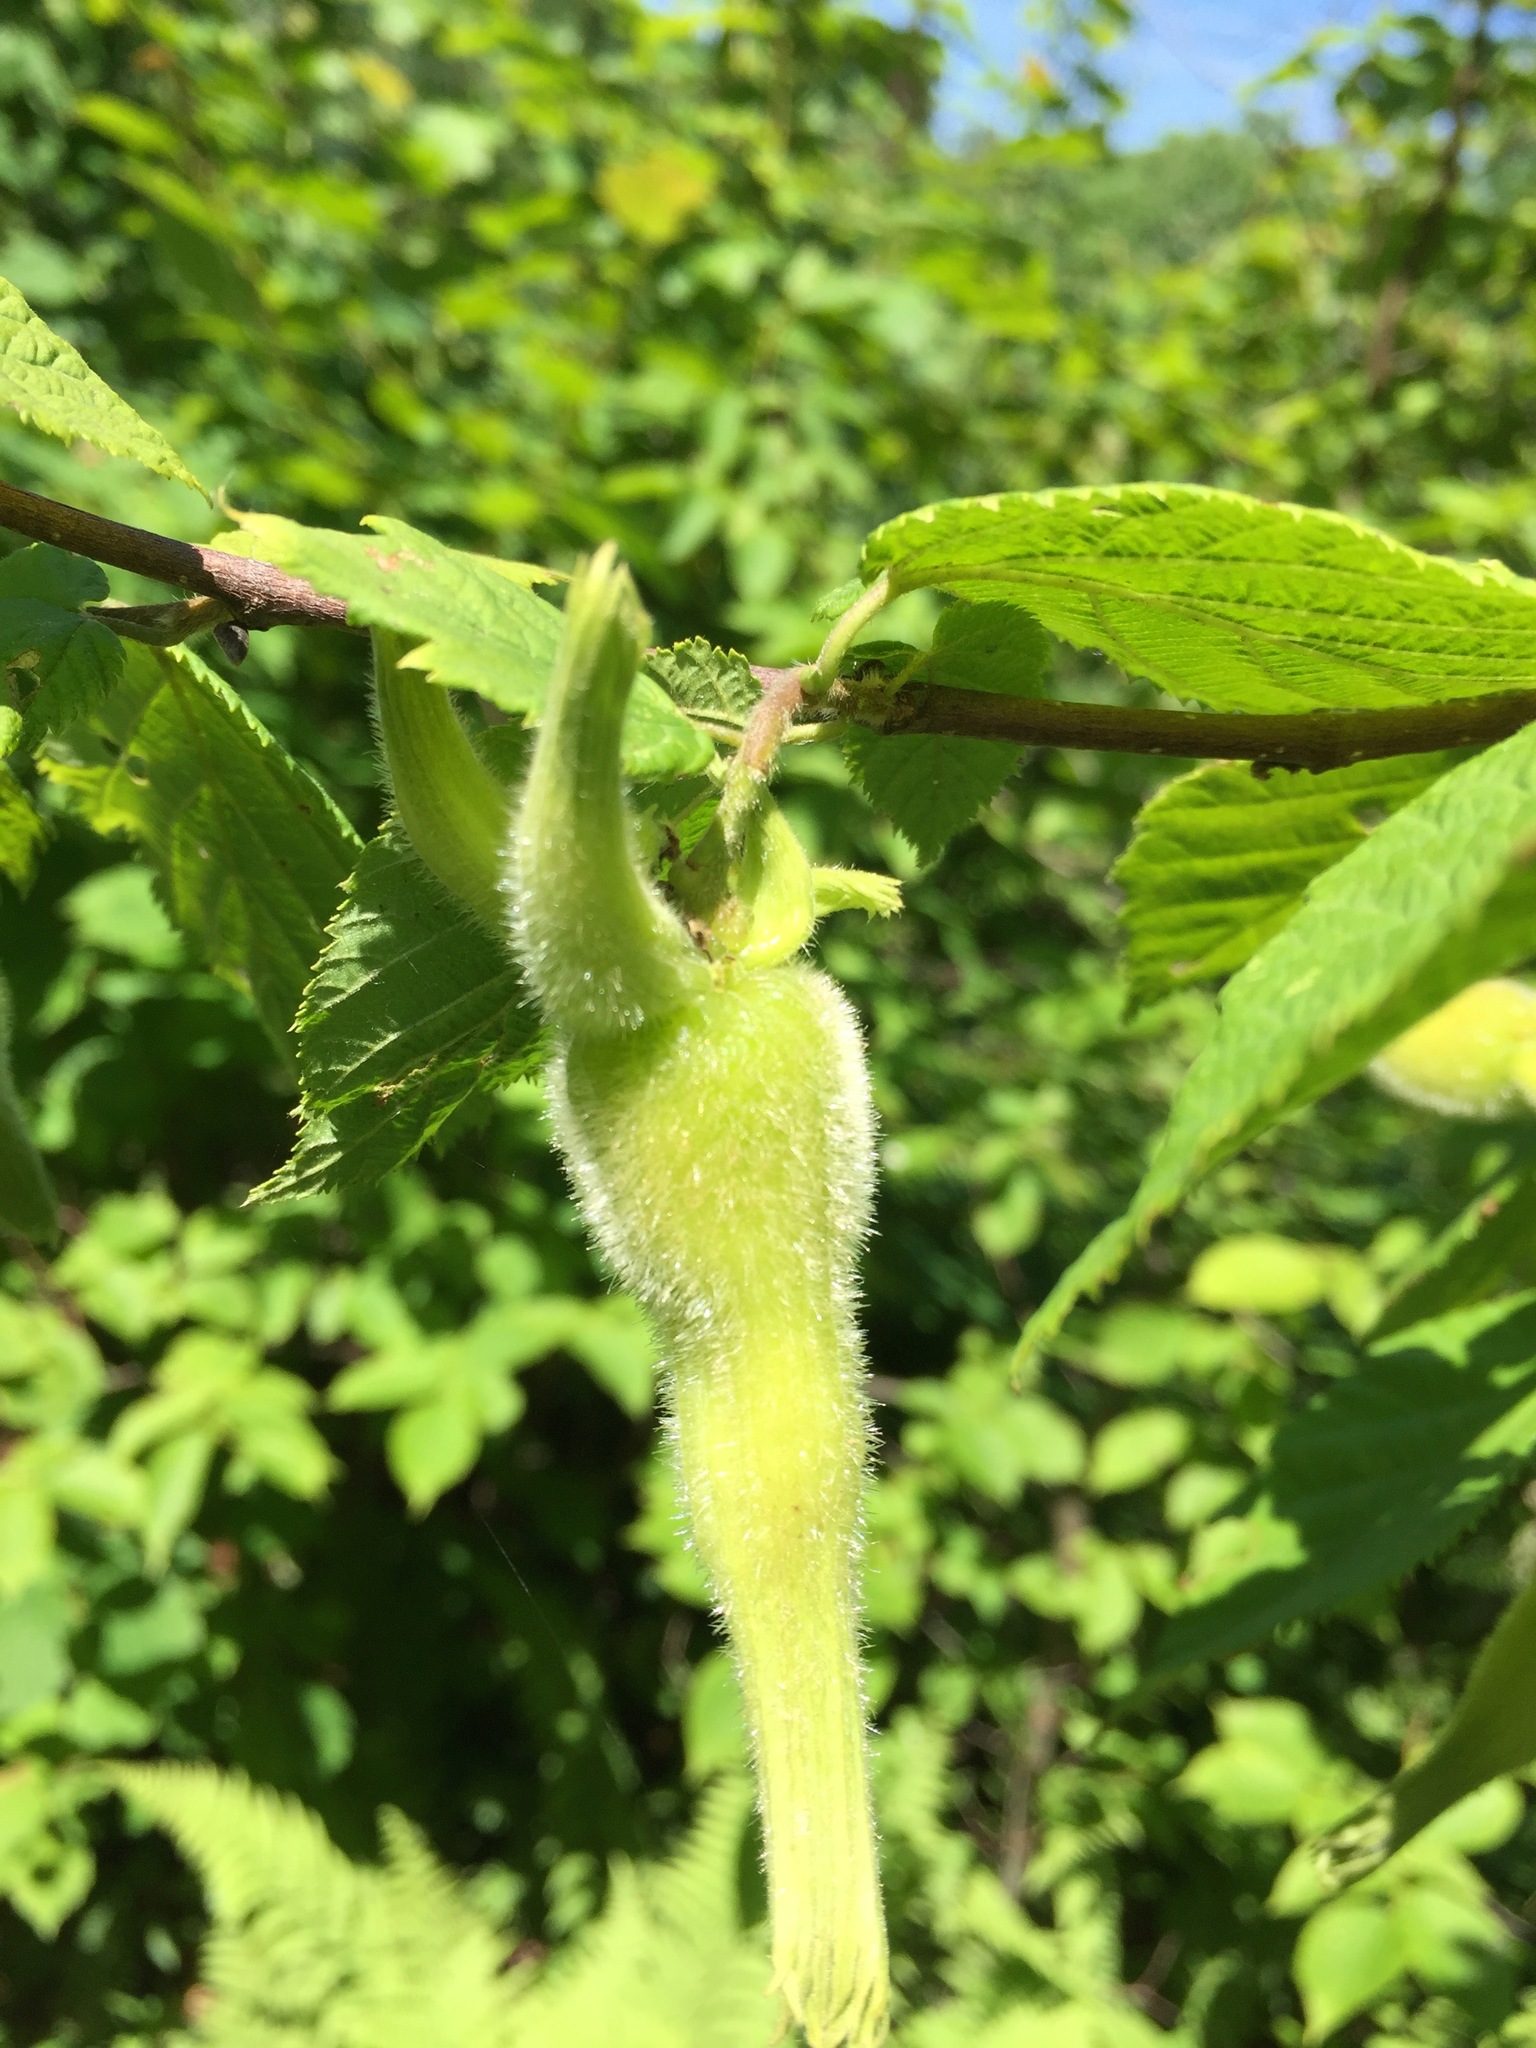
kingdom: Plantae
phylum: Tracheophyta
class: Magnoliopsida
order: Fagales
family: Betulaceae
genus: Corylus
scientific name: Corylus cornuta
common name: Beaked hazel
